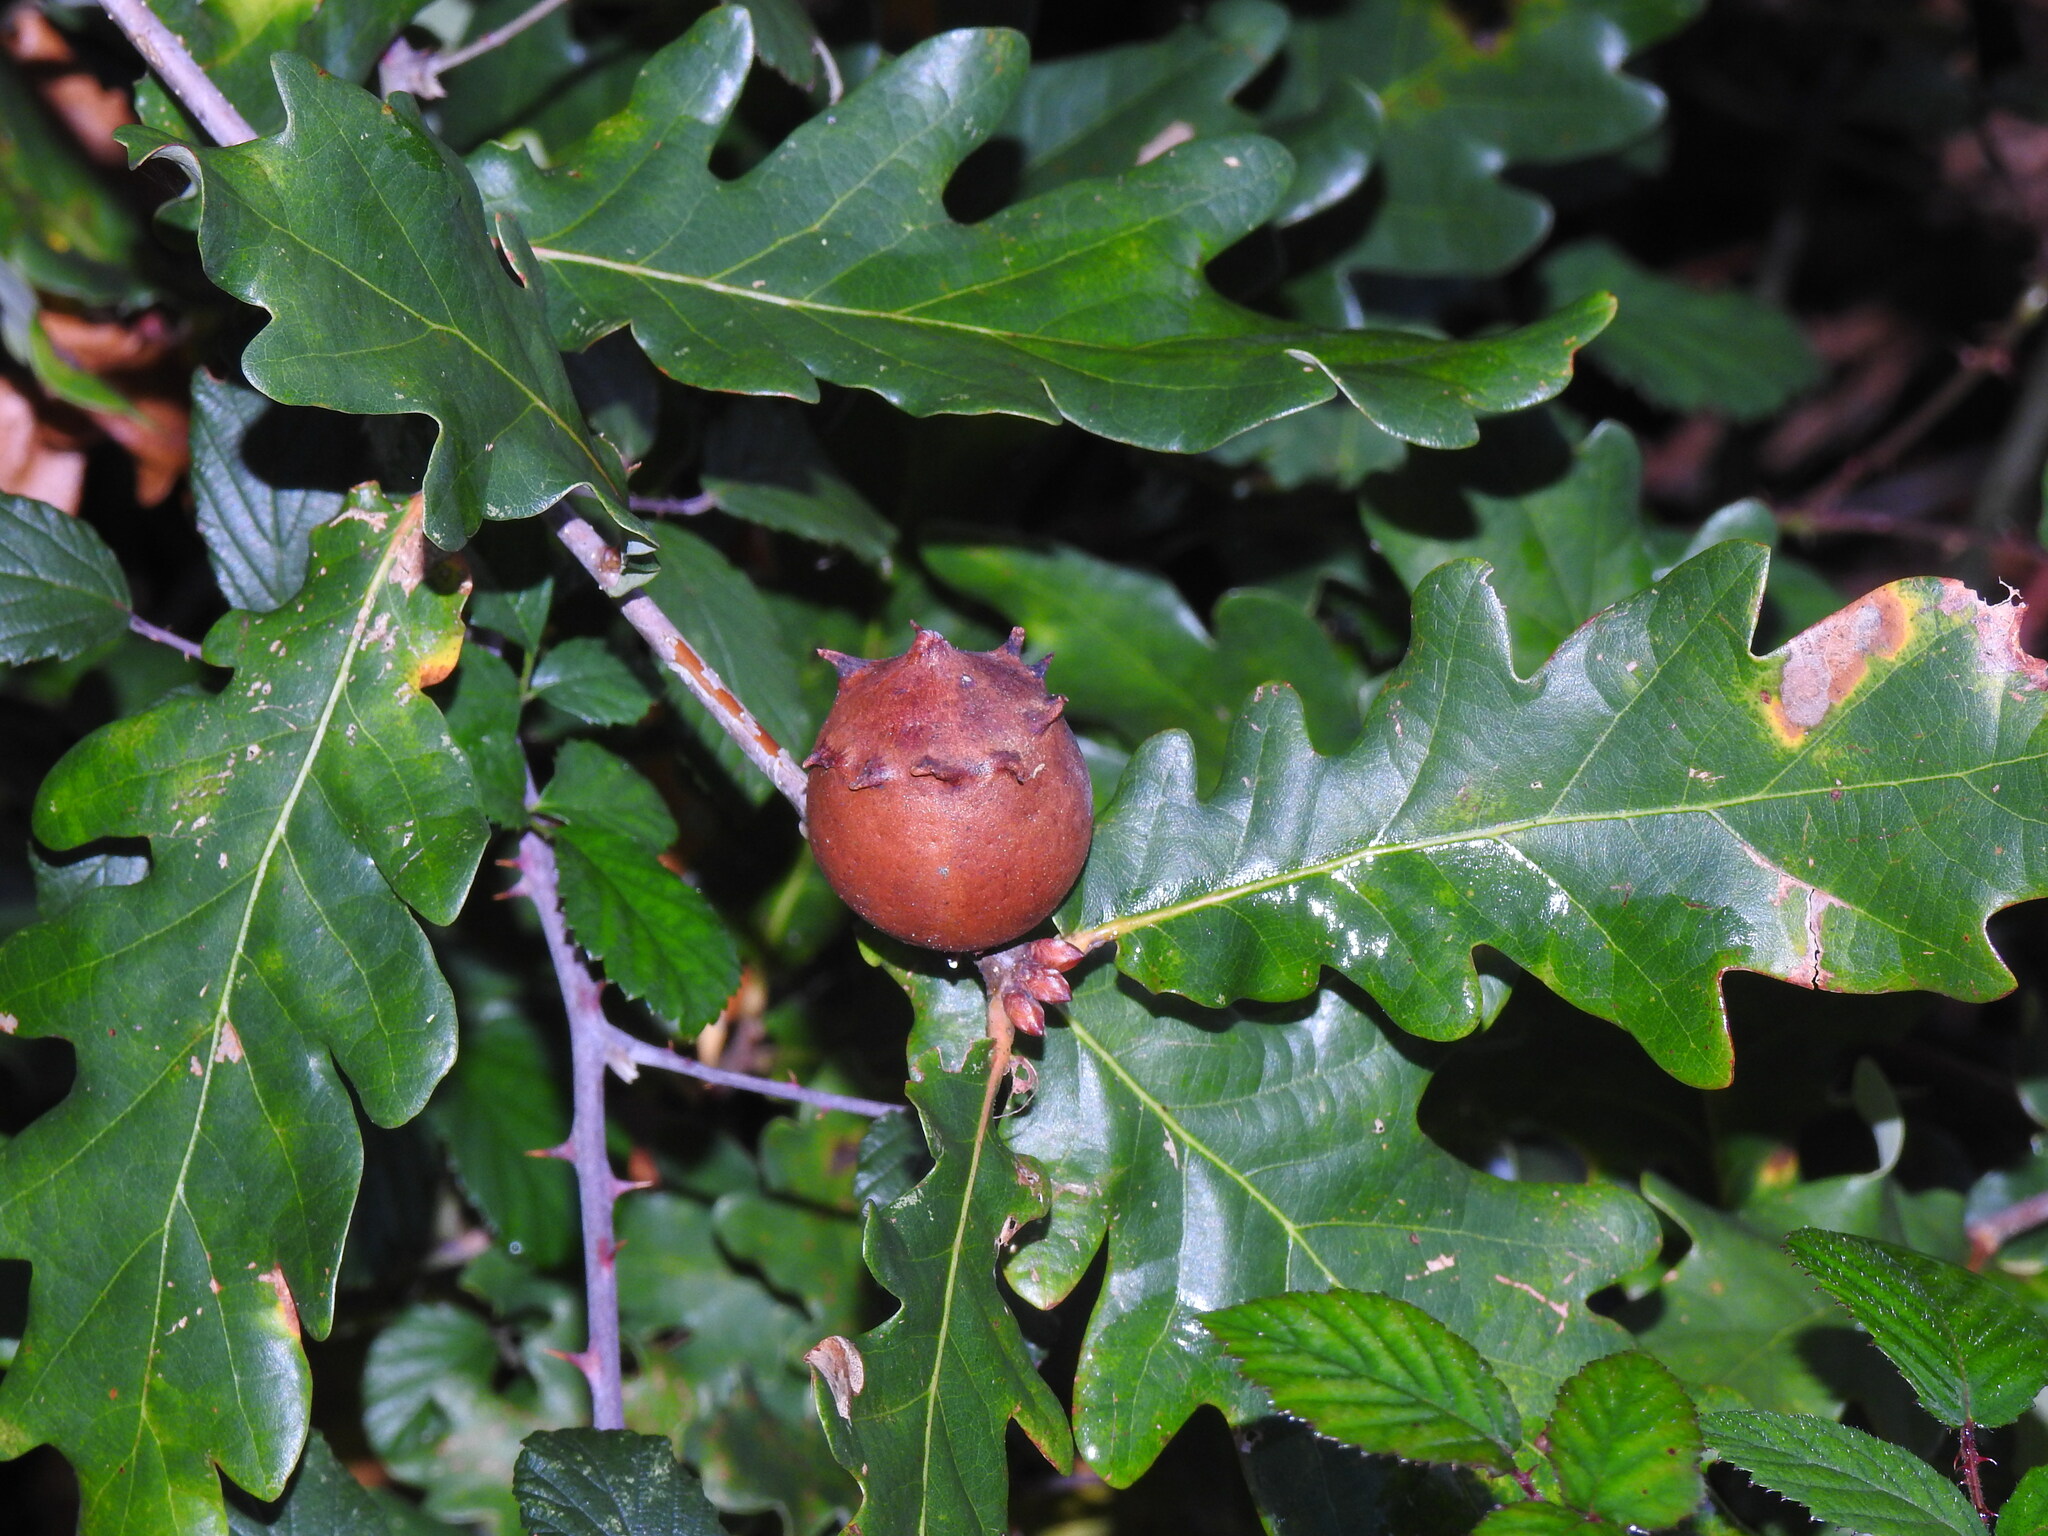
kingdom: Animalia
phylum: Arthropoda
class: Insecta
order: Hymenoptera
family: Cynipidae
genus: Andricus
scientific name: Andricus quercustozae
